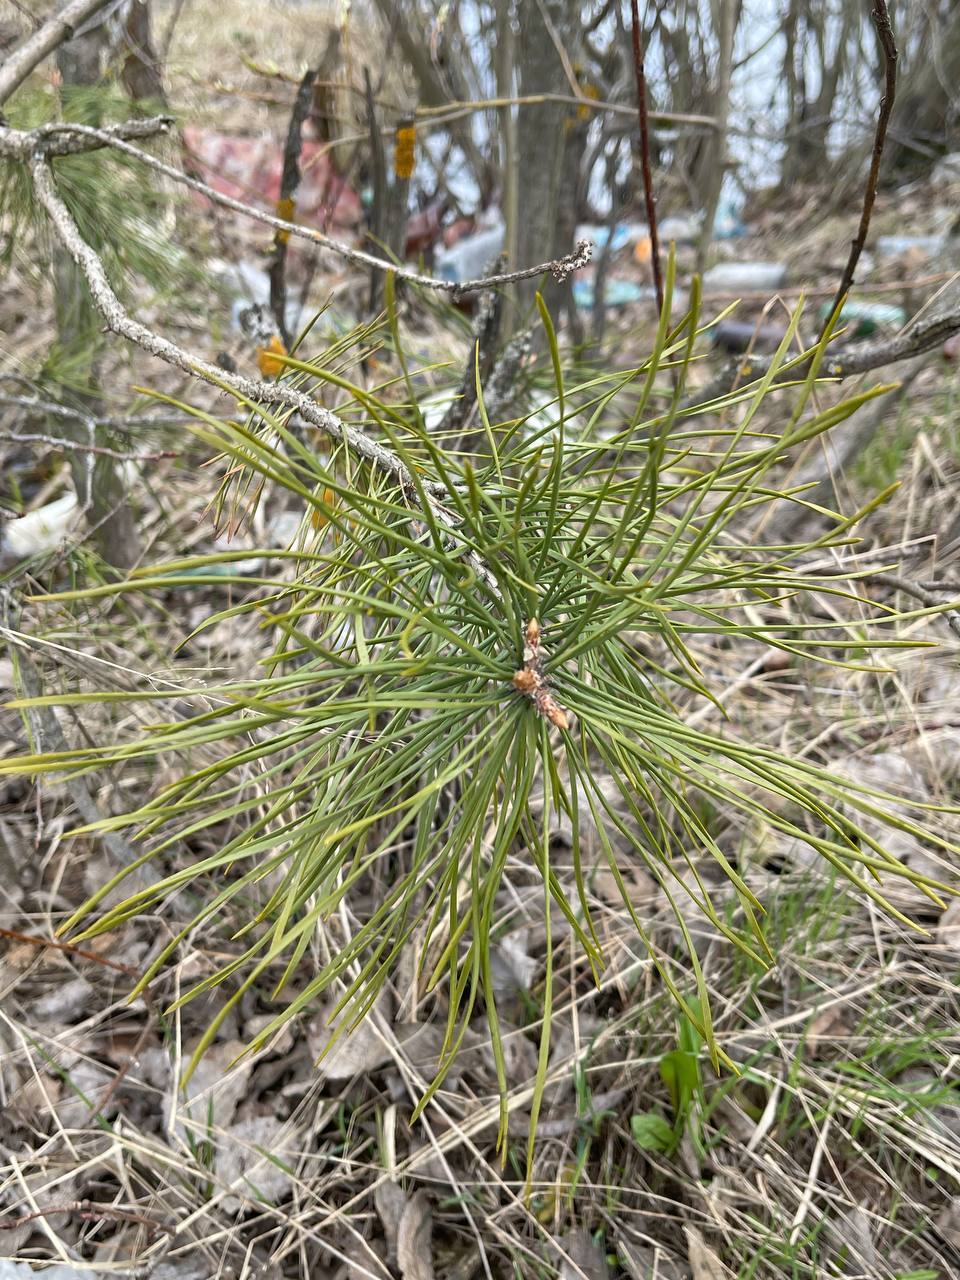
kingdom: Plantae
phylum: Tracheophyta
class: Pinopsida
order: Pinales
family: Pinaceae
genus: Pinus
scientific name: Pinus sylvestris
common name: Scots pine
